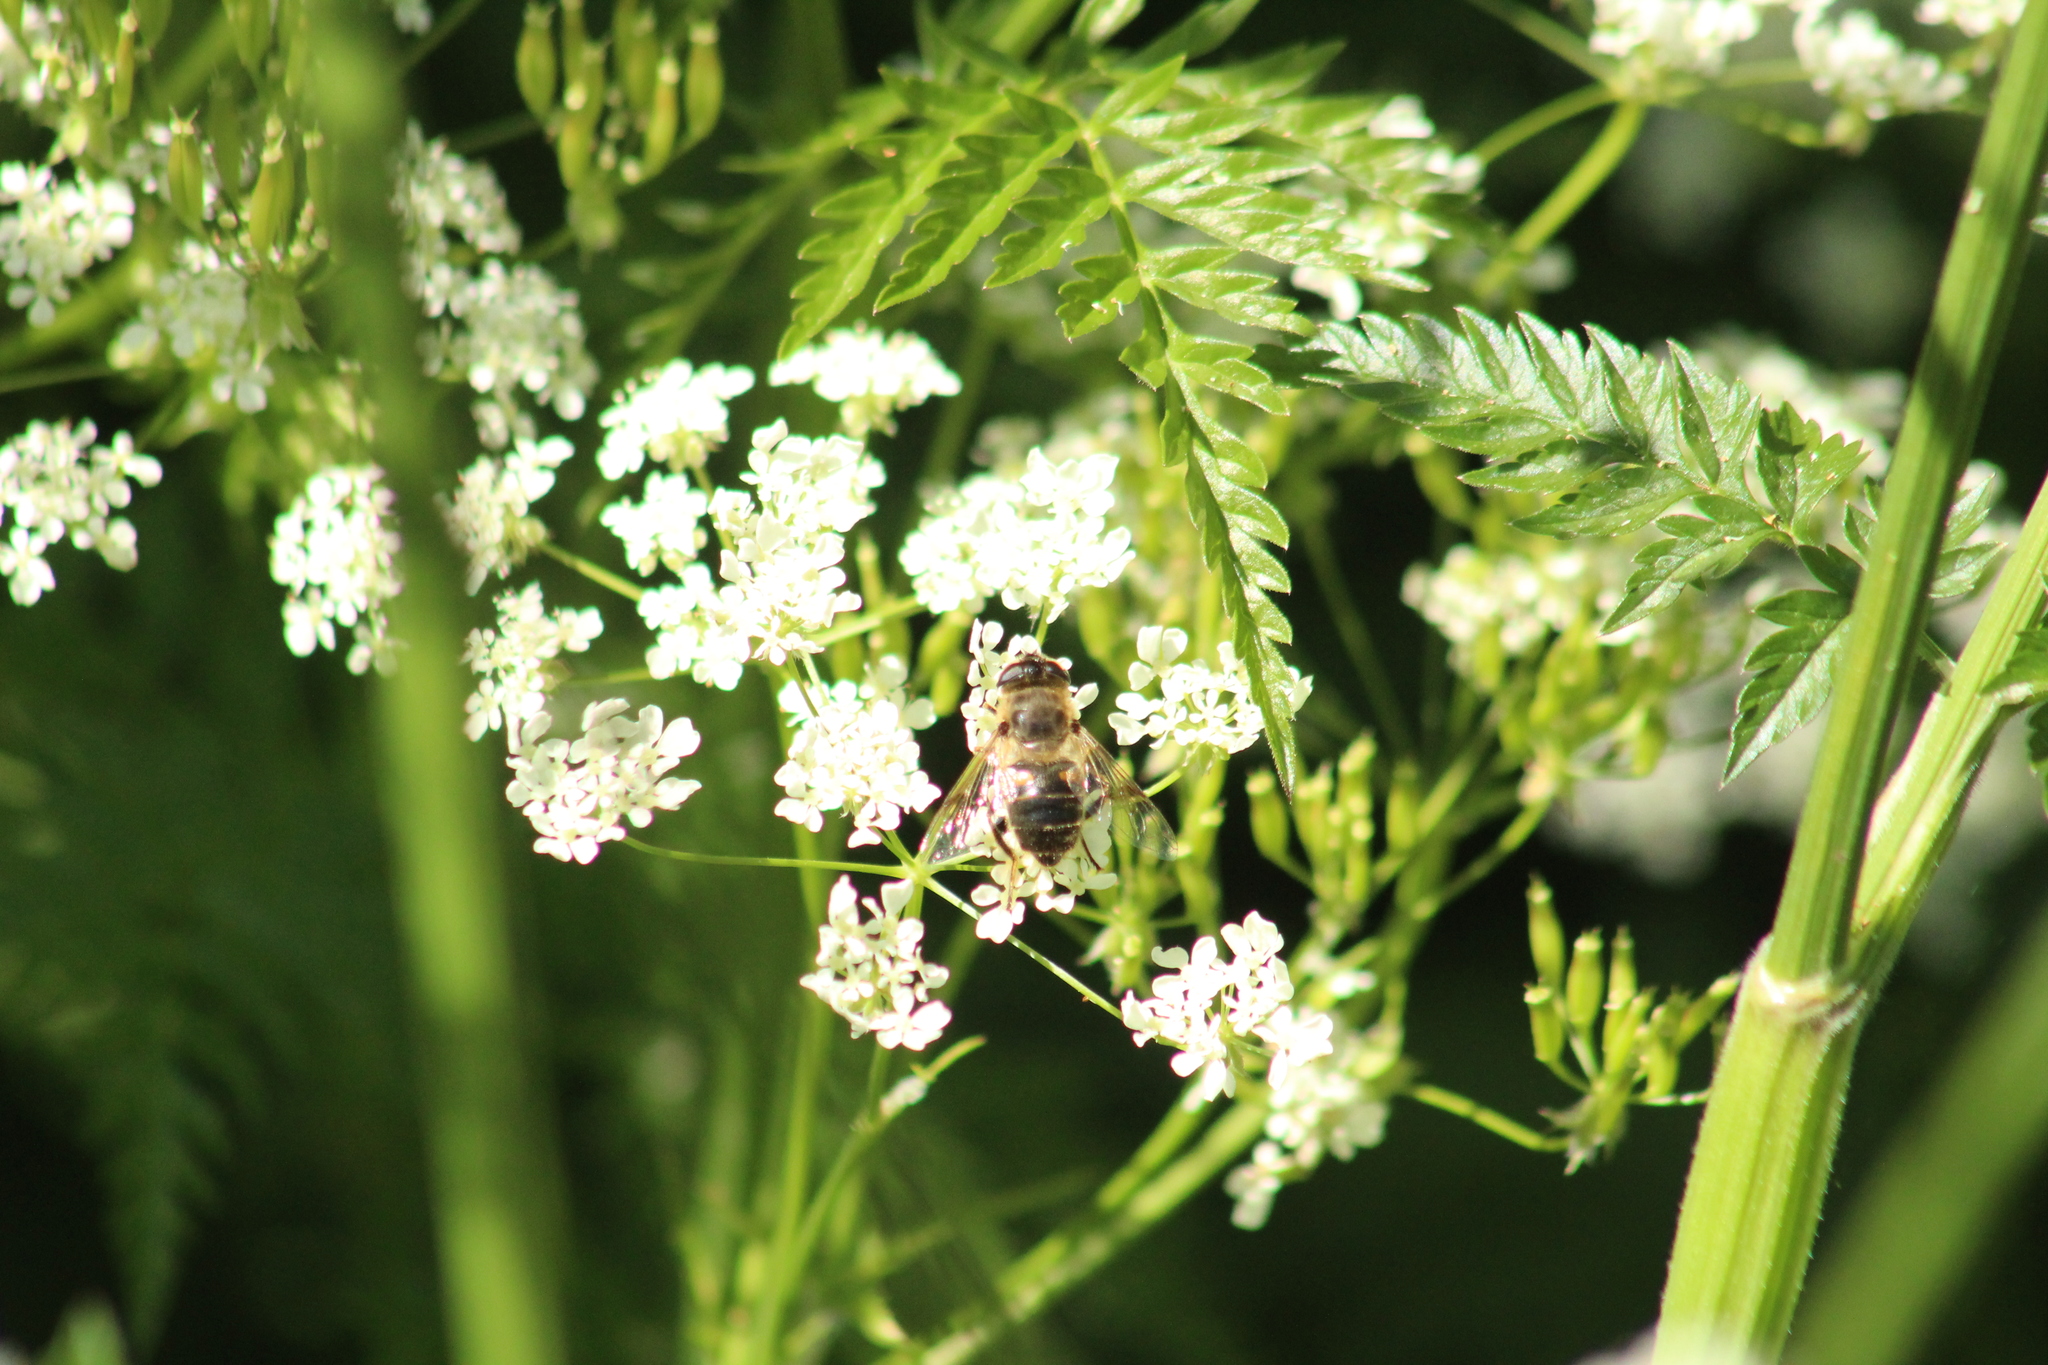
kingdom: Animalia
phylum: Arthropoda
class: Insecta
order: Diptera
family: Syrphidae
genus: Eristalis
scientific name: Eristalis tenax
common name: Drone fly
